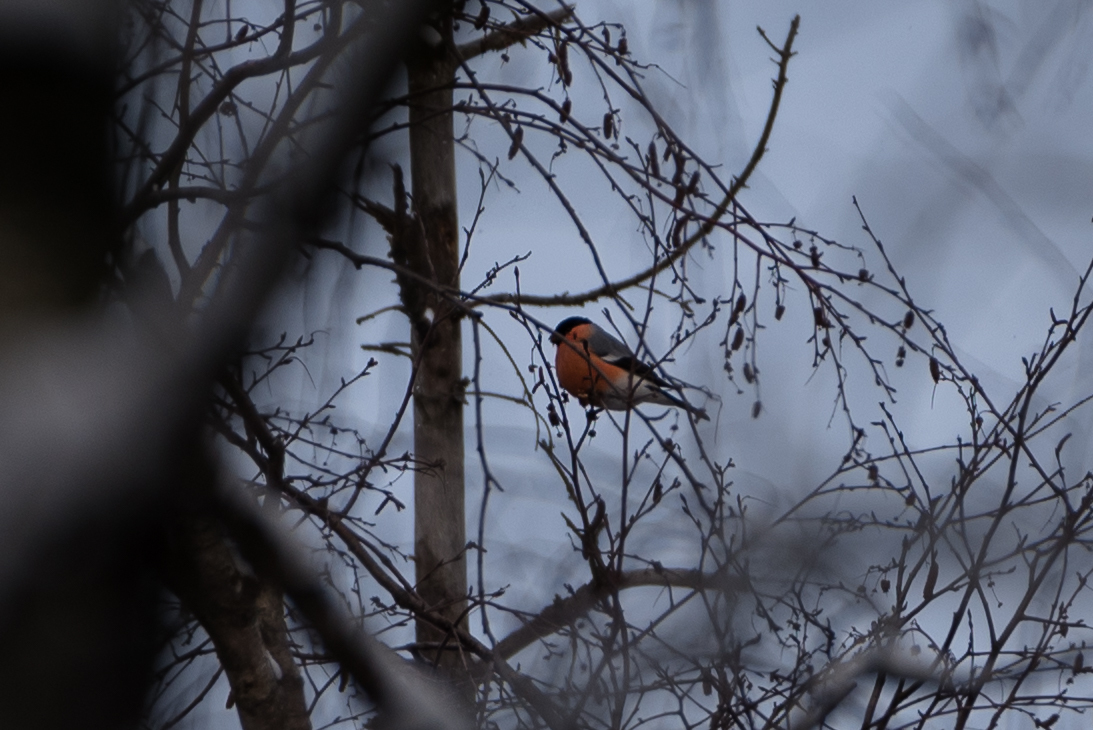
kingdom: Animalia
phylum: Chordata
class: Aves
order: Passeriformes
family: Fringillidae
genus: Pyrrhula
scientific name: Pyrrhula pyrrhula
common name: Eurasian bullfinch
